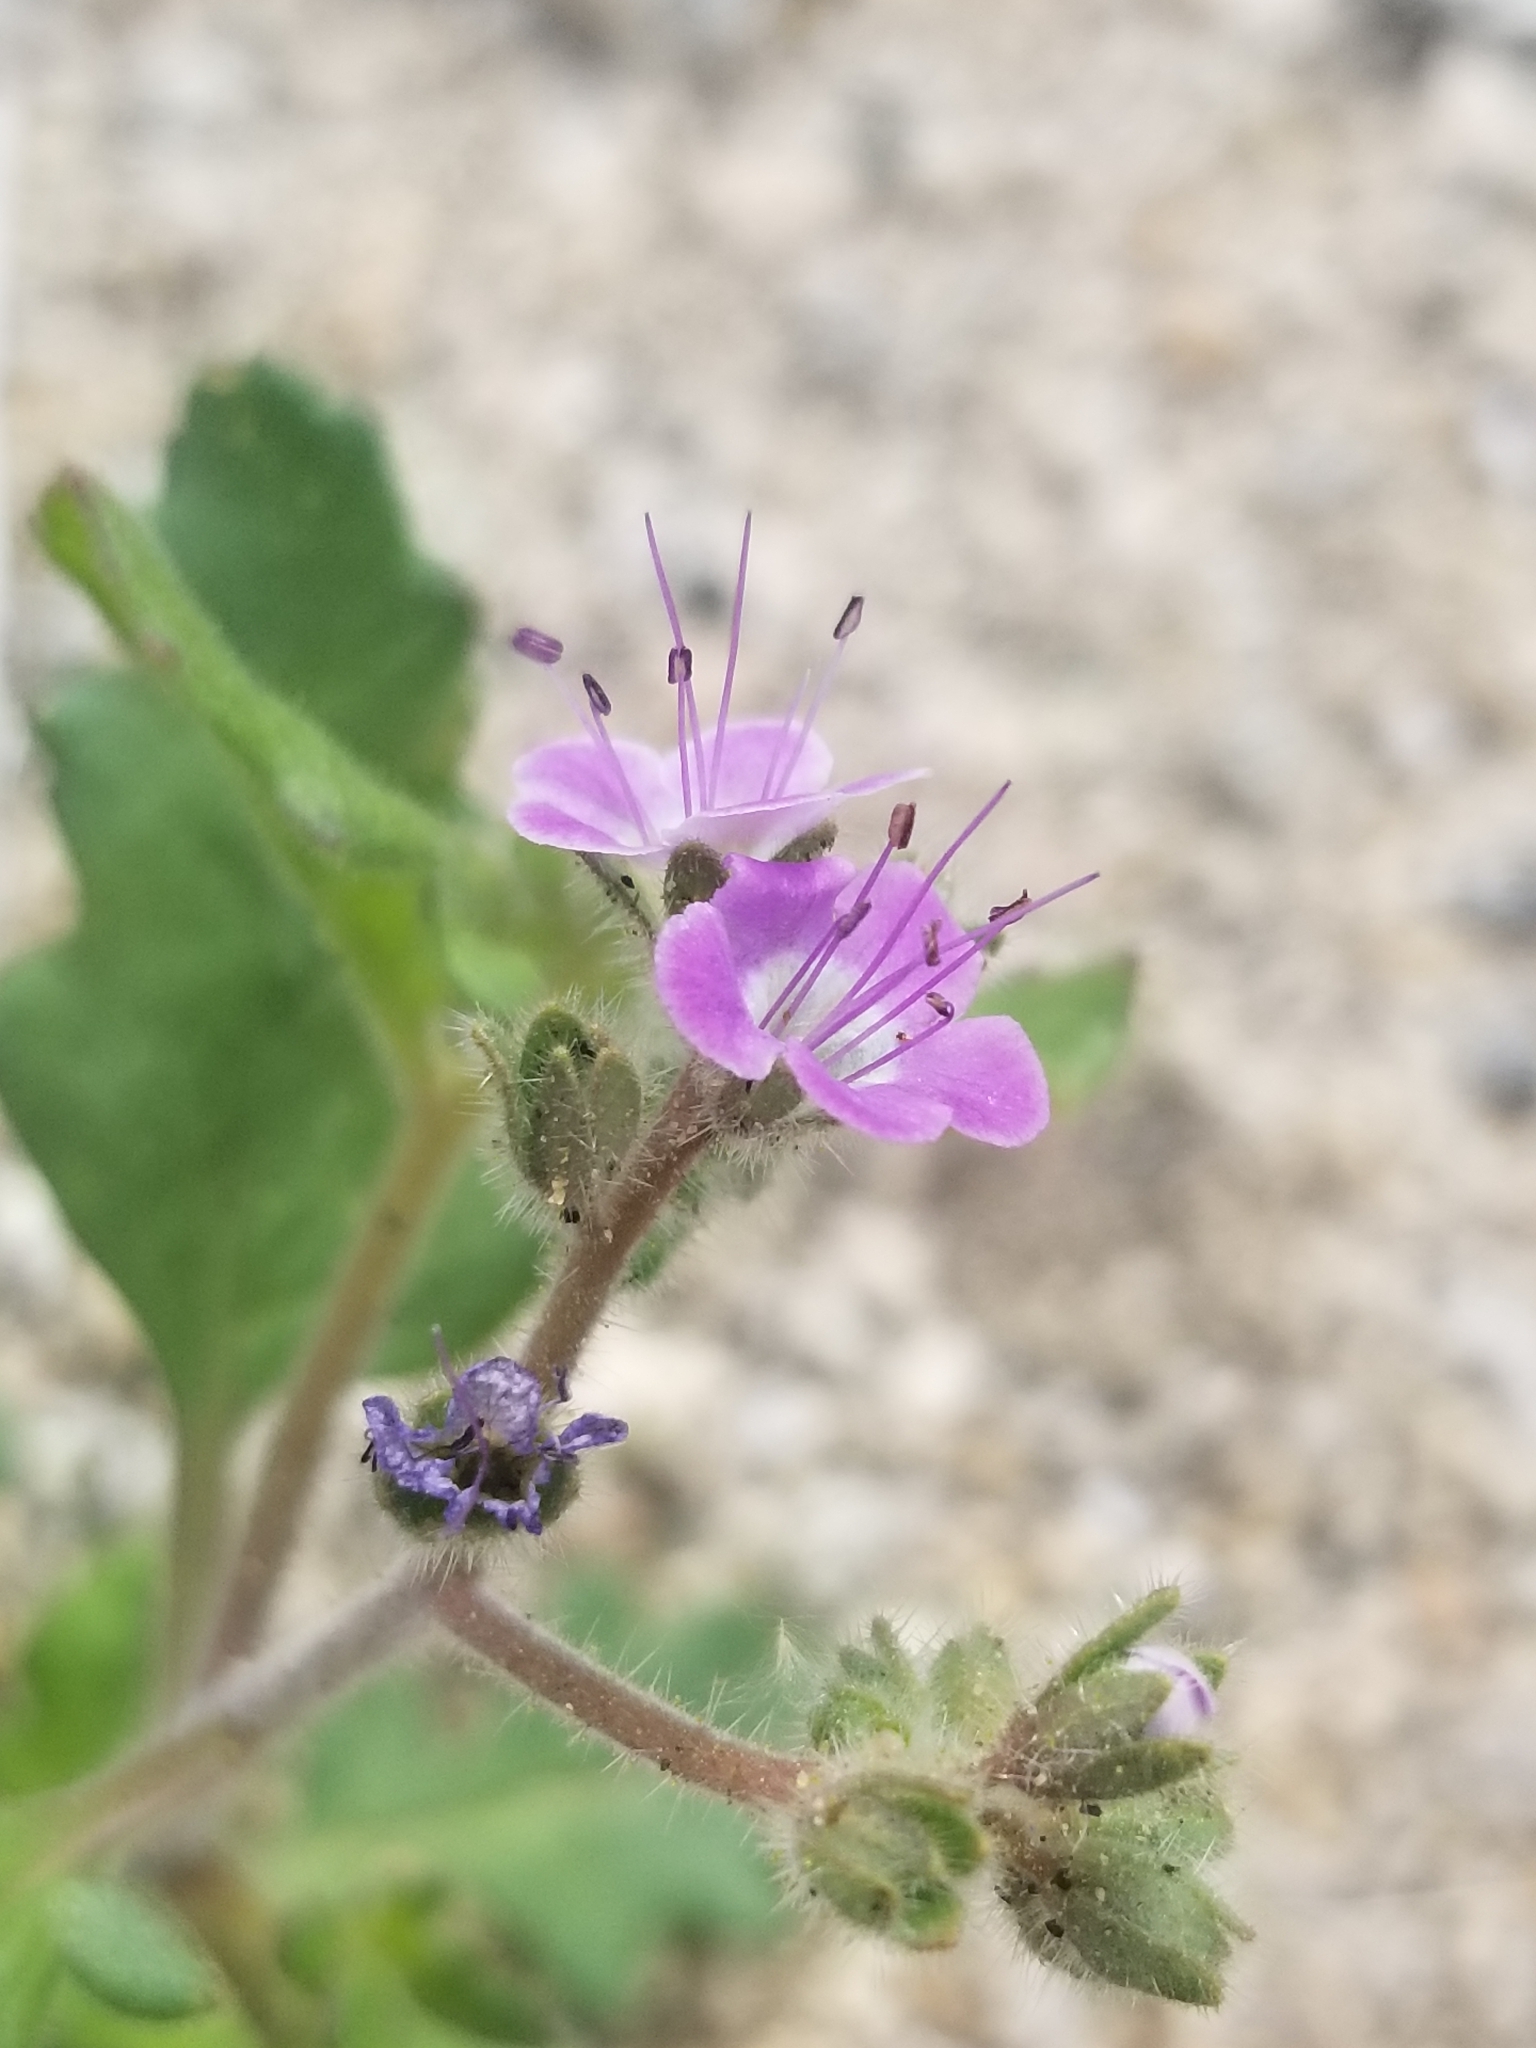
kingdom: Plantae
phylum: Tracheophyta
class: Magnoliopsida
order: Boraginales
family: Hydrophyllaceae
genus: Phacelia
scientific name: Phacelia crenulata
